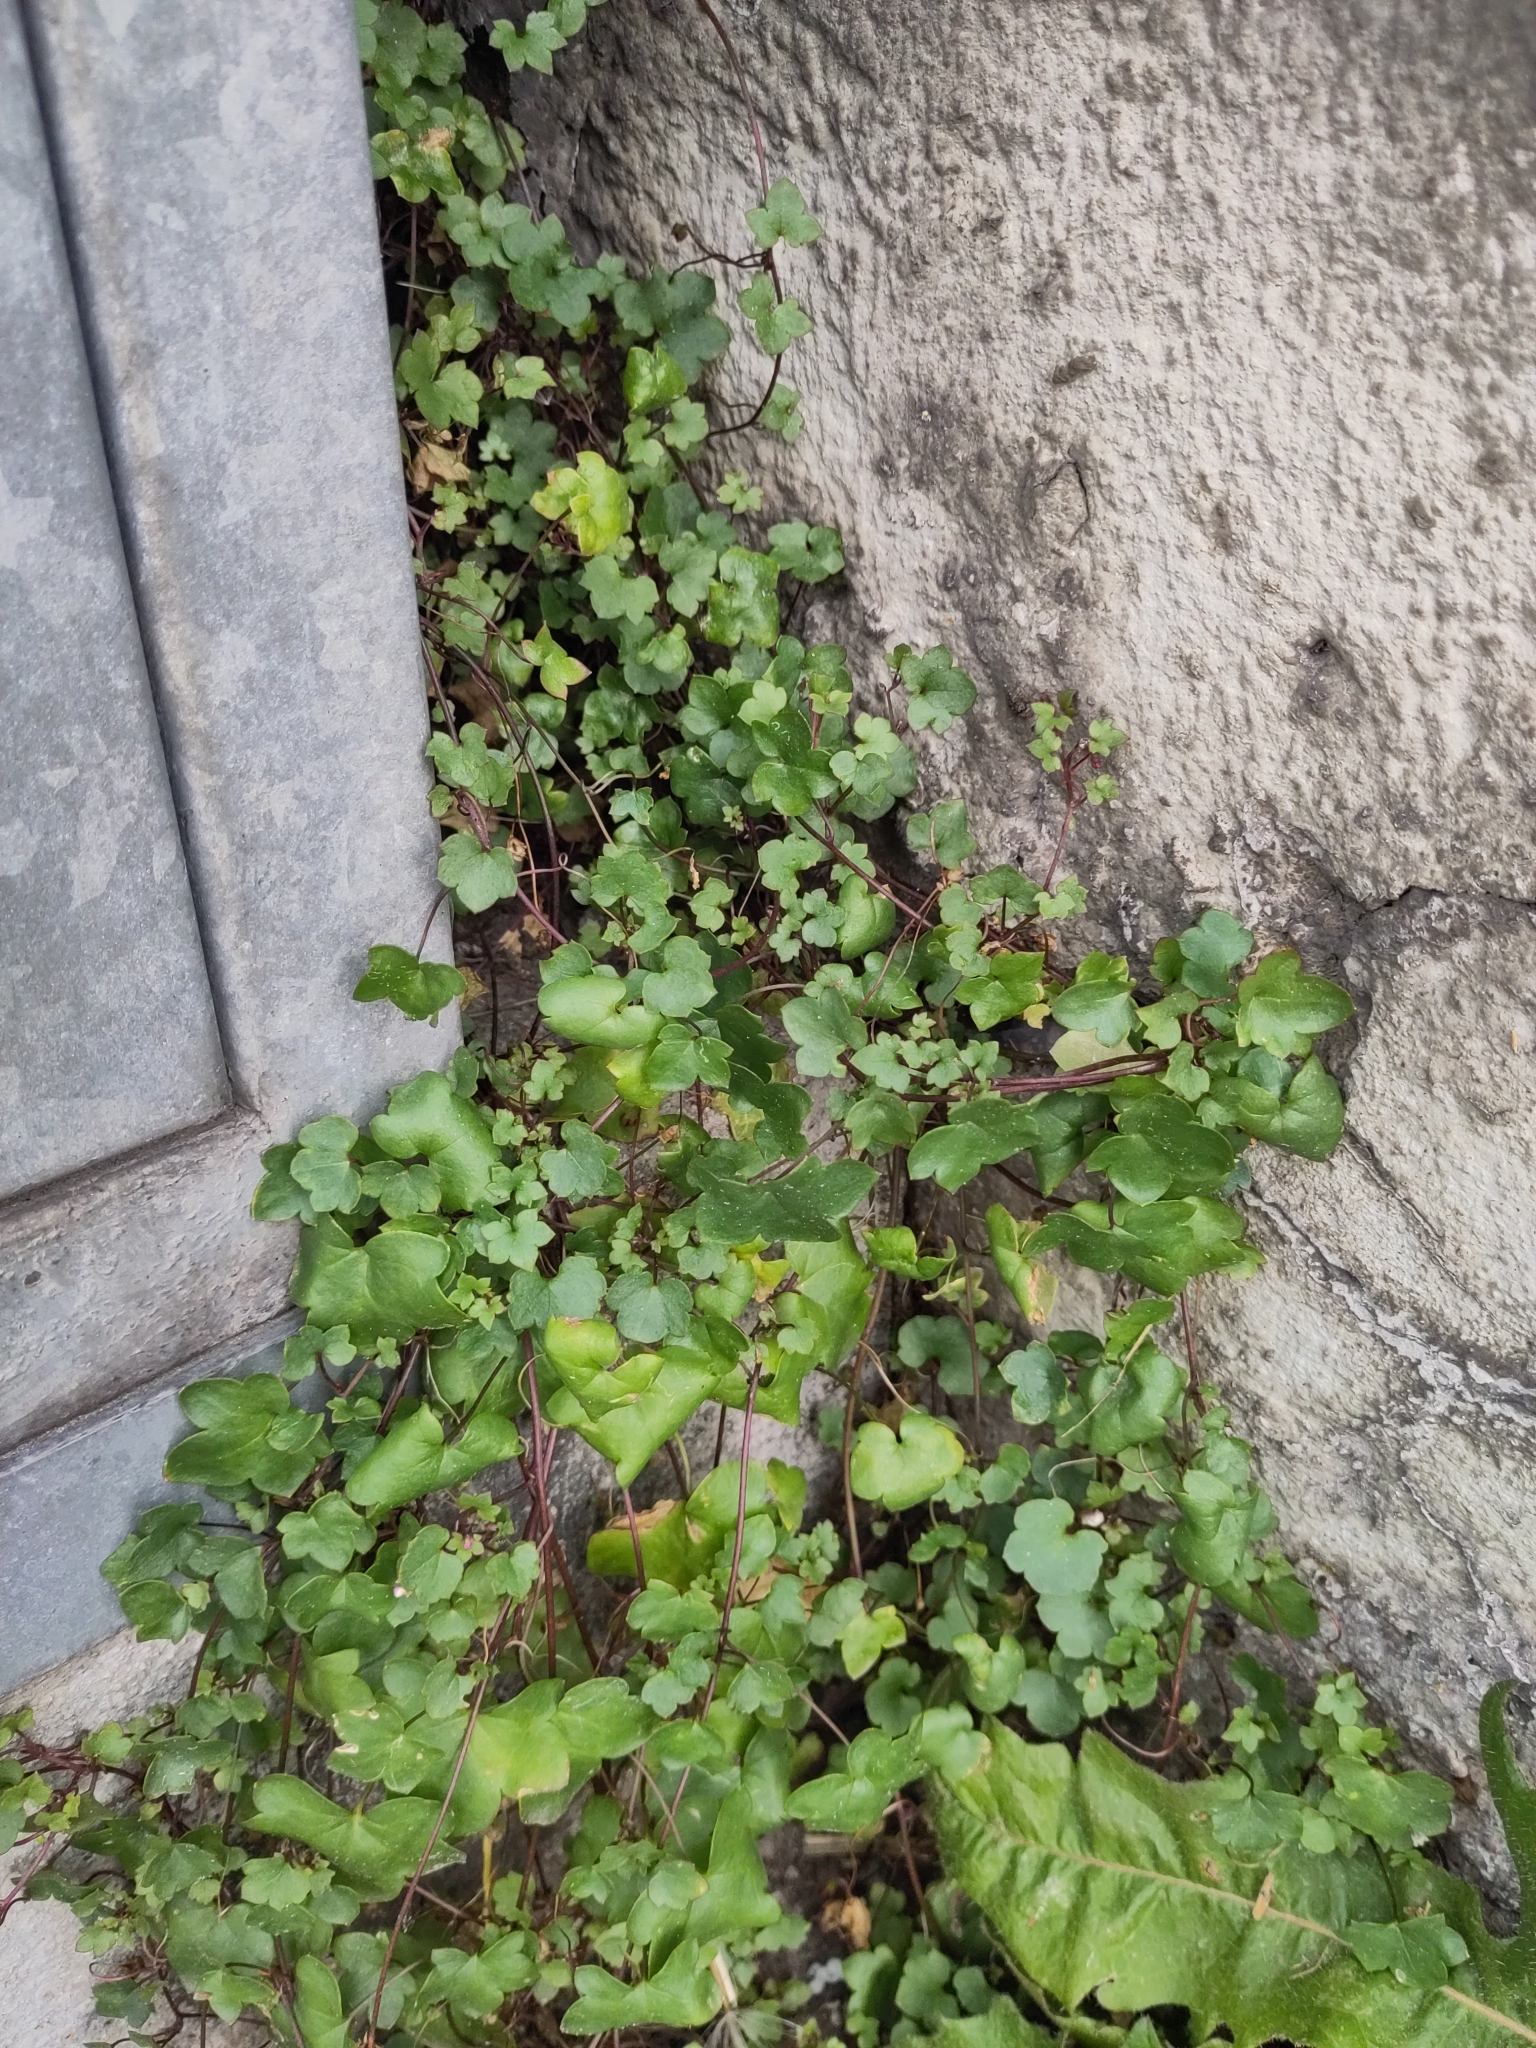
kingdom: Plantae
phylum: Tracheophyta
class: Magnoliopsida
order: Lamiales
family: Plantaginaceae
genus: Cymbalaria
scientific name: Cymbalaria muralis
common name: Ivy-leaved toadflax
